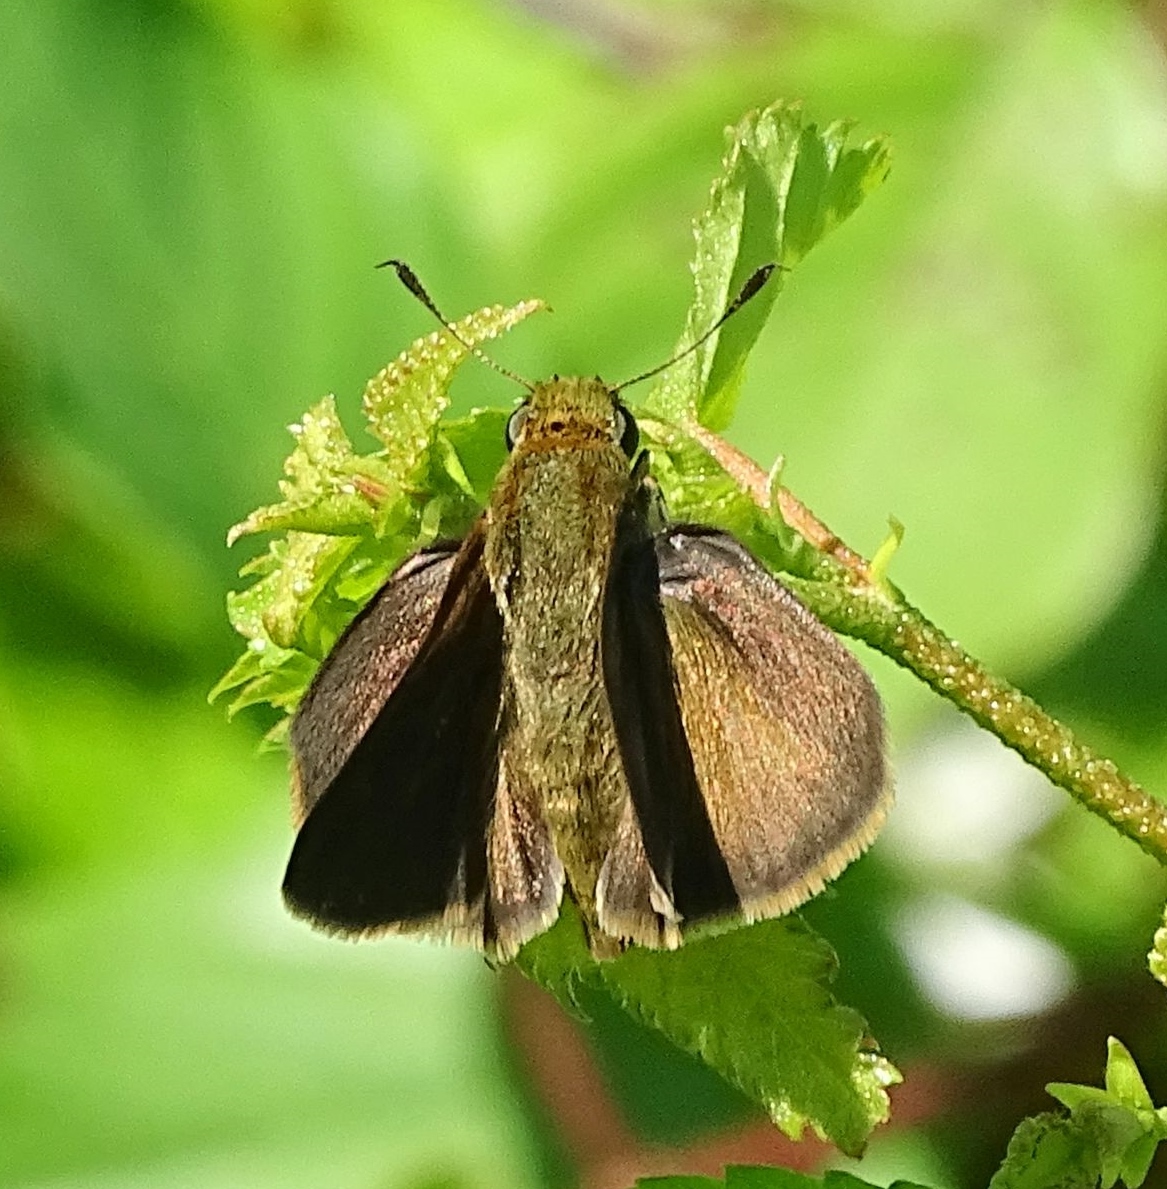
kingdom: Animalia
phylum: Arthropoda
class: Insecta
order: Lepidoptera
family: Hesperiidae
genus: Euphyes
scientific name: Euphyes vestris
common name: Dun skipper
